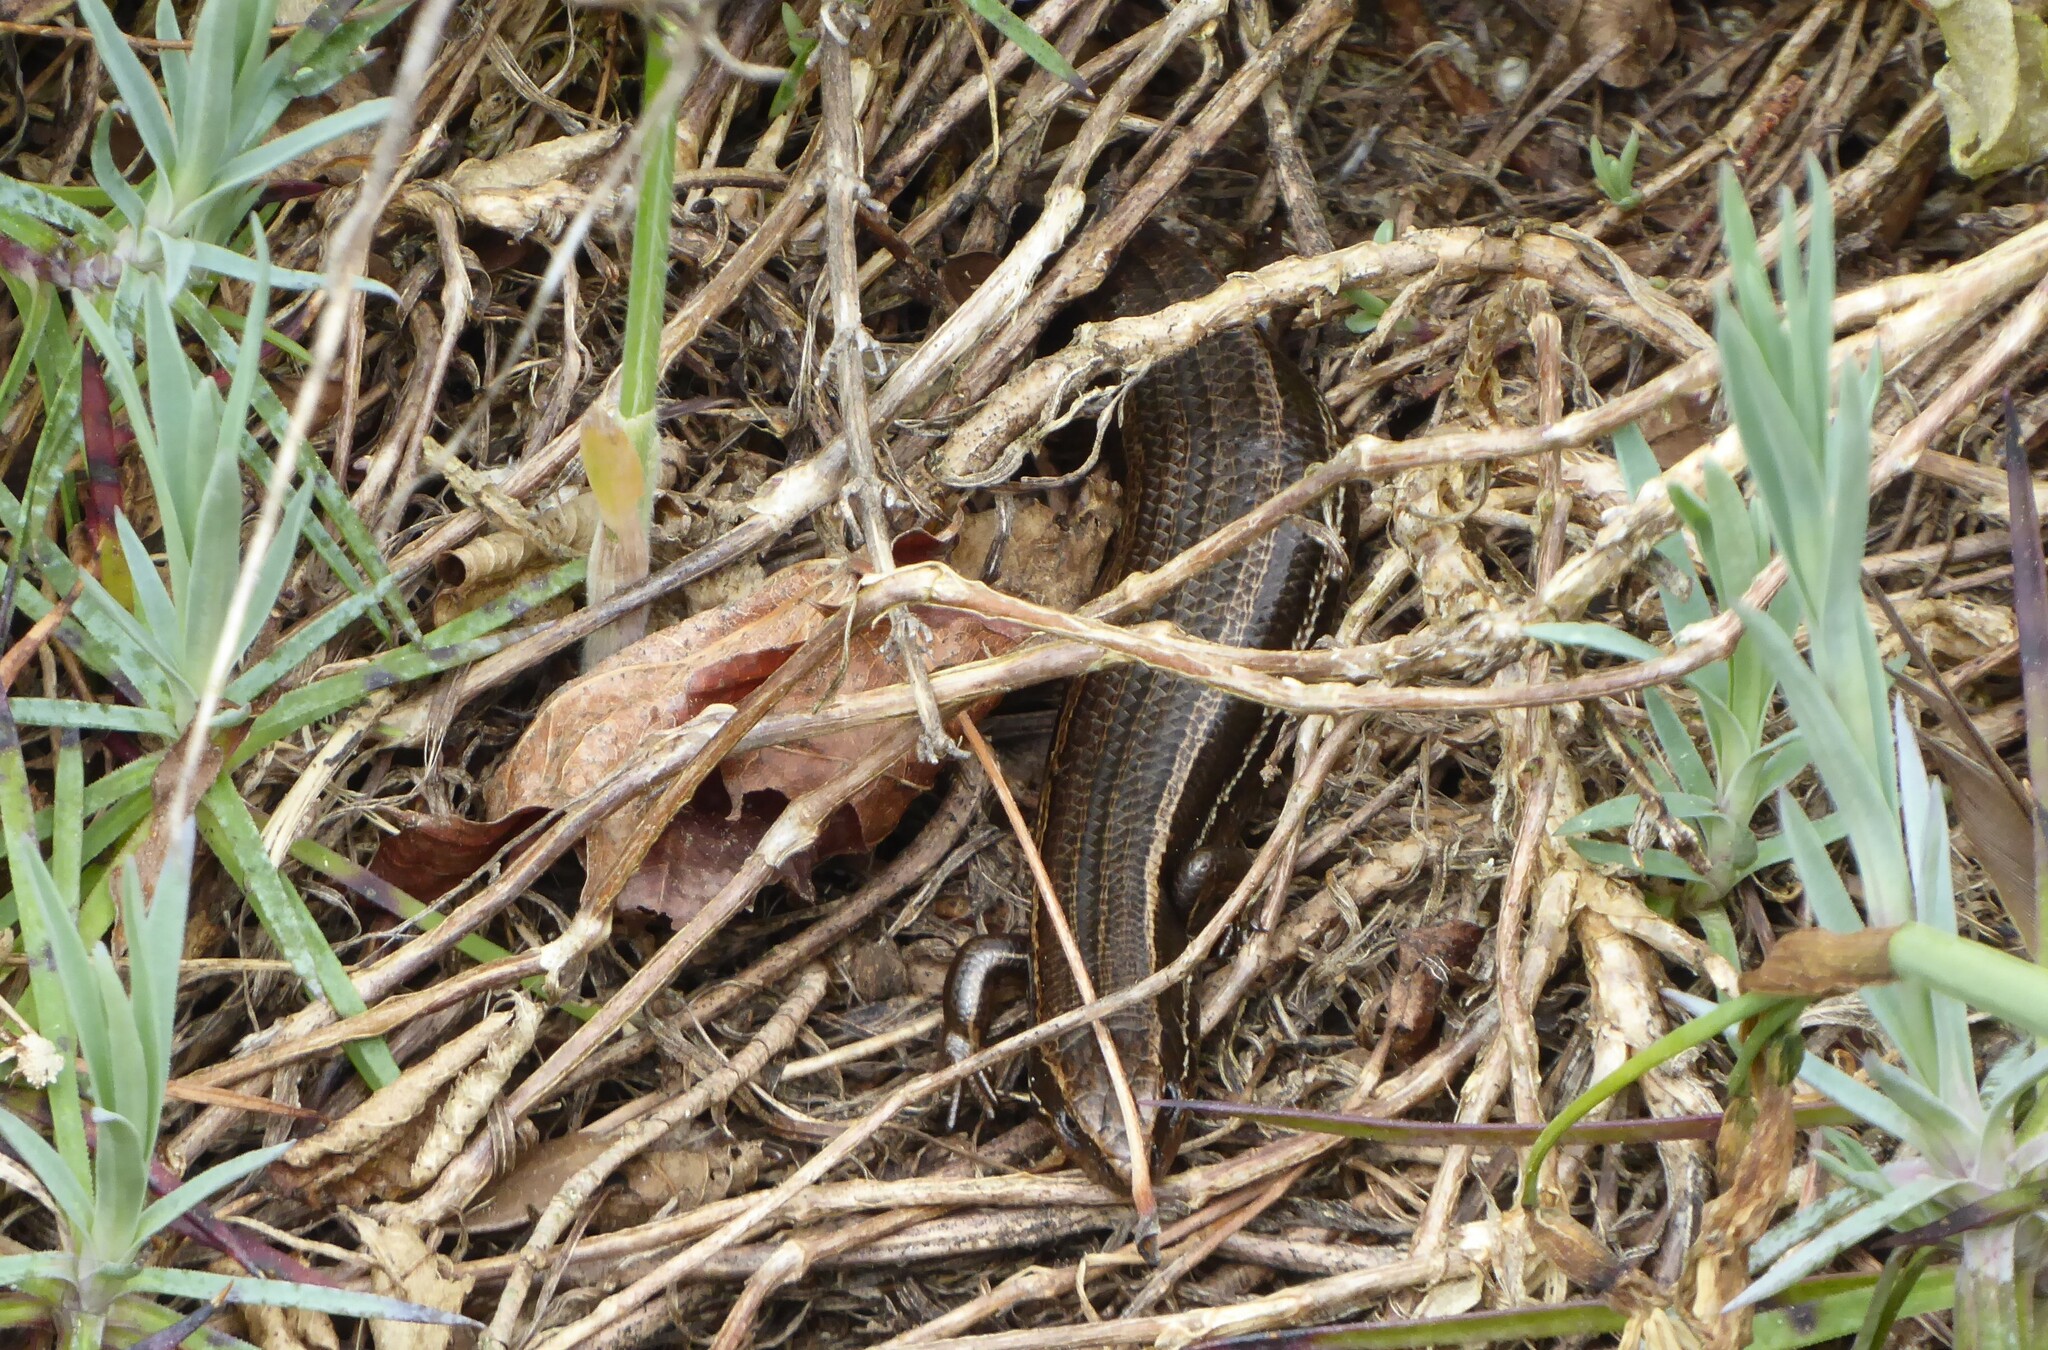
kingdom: Animalia
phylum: Chordata
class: Squamata
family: Scincidae
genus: Oligosoma
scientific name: Oligosoma polychroma
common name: Common new zealand skink
